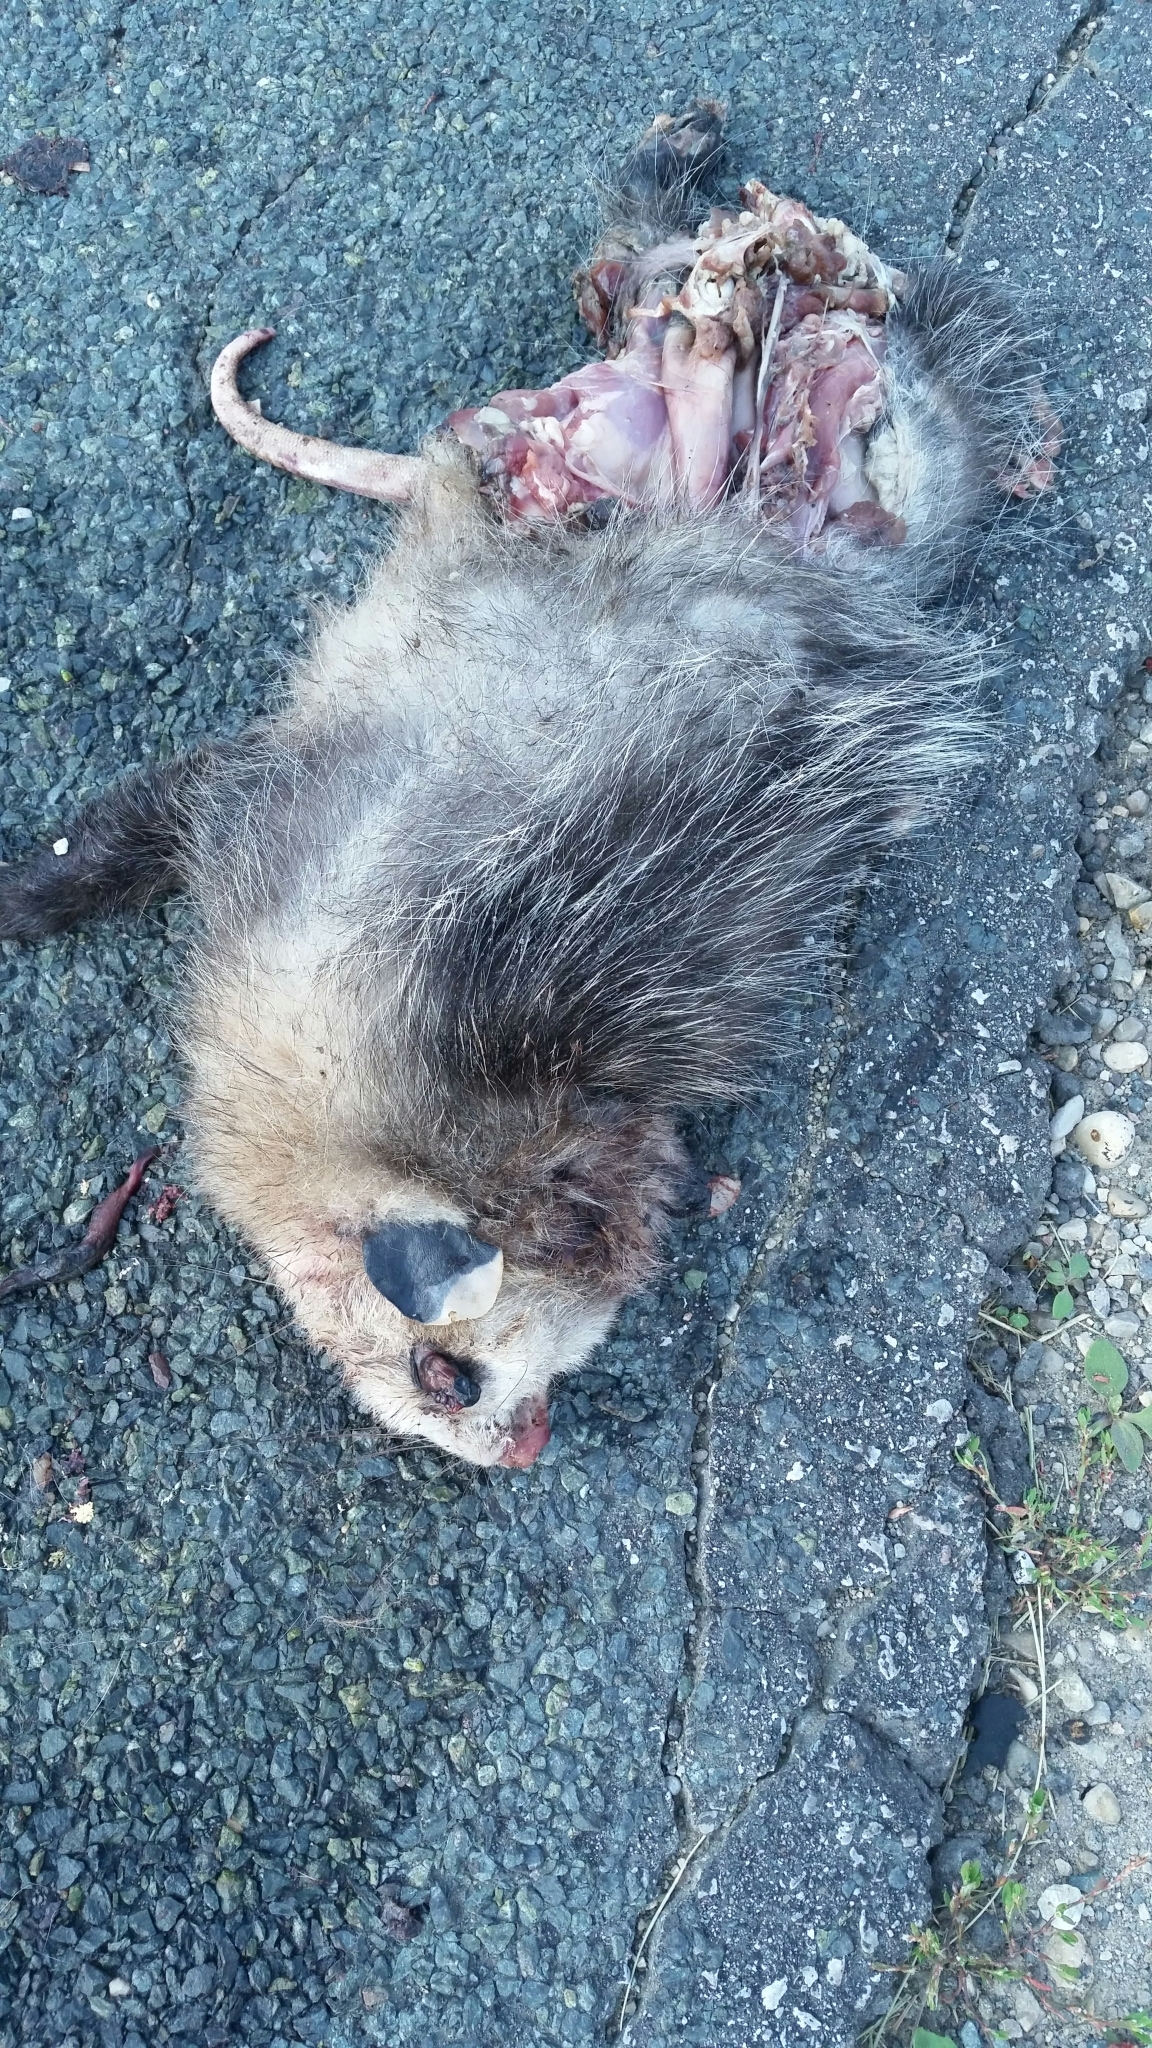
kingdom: Animalia
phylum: Chordata
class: Mammalia
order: Didelphimorphia
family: Didelphidae
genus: Didelphis
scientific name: Didelphis virginiana
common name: Virginia opossum
